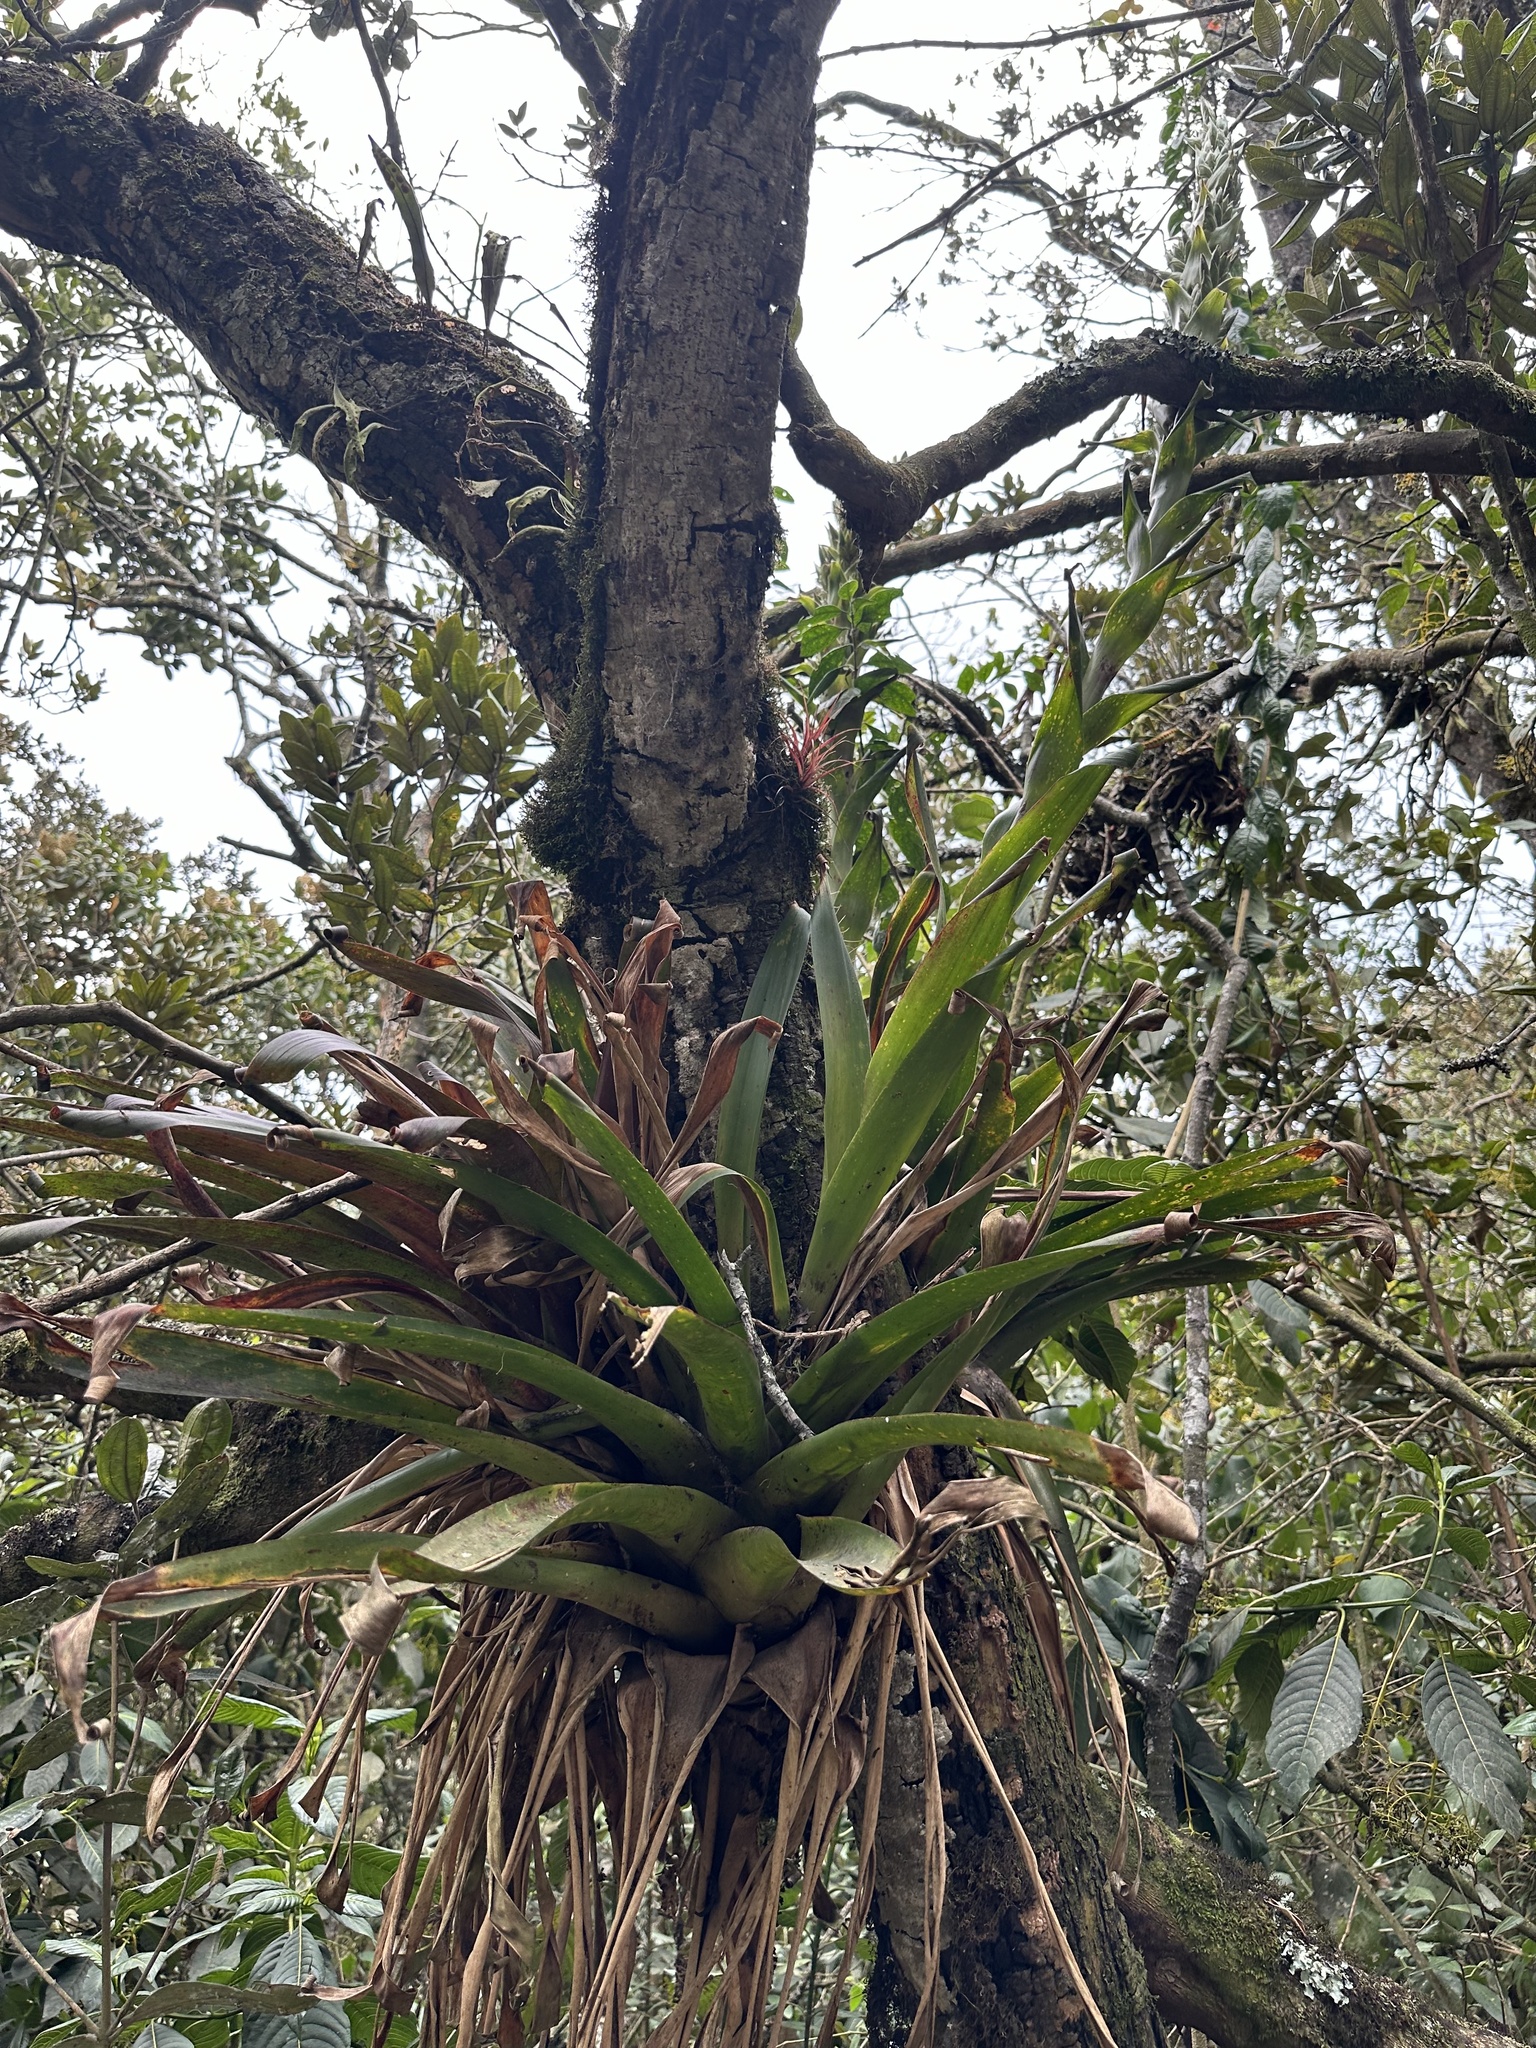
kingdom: Plantae
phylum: Tracheophyta
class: Liliopsida
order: Poales
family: Bromeliaceae
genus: Tillandsia
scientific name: Tillandsia pastensis
